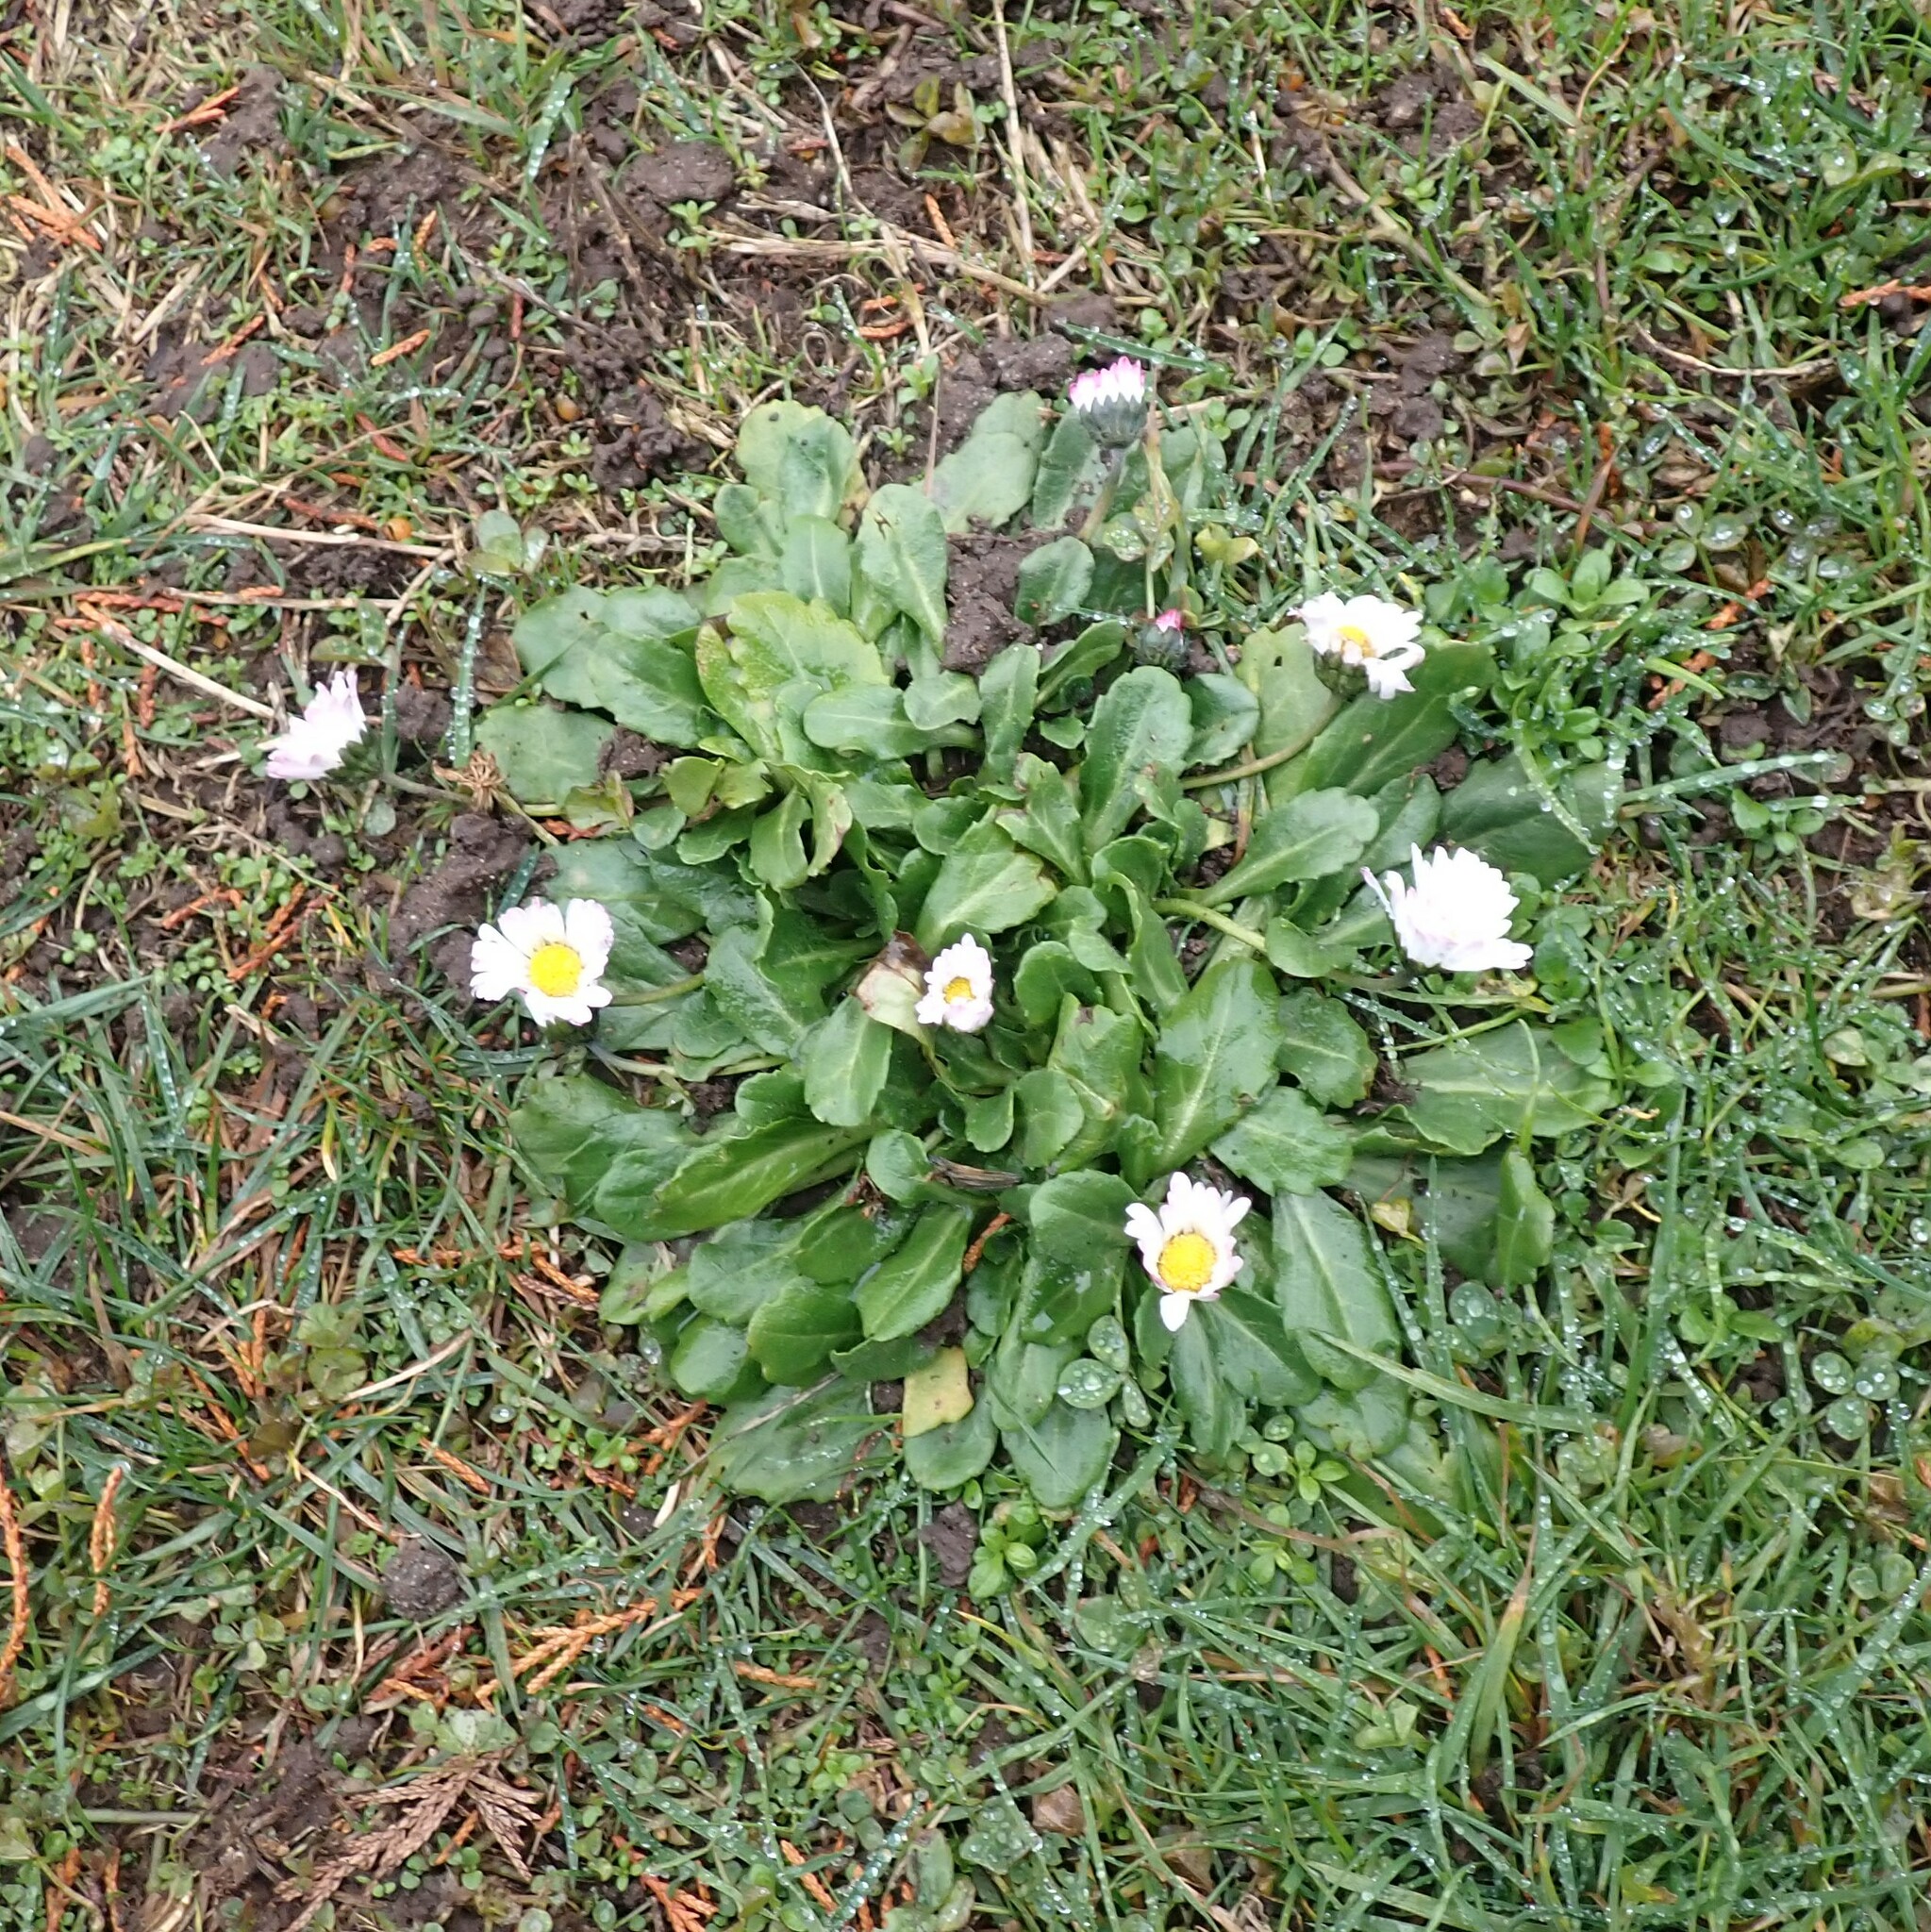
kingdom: Plantae
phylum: Tracheophyta
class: Magnoliopsida
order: Asterales
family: Asteraceae
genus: Bellis
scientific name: Bellis perennis
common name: Lawndaisy
